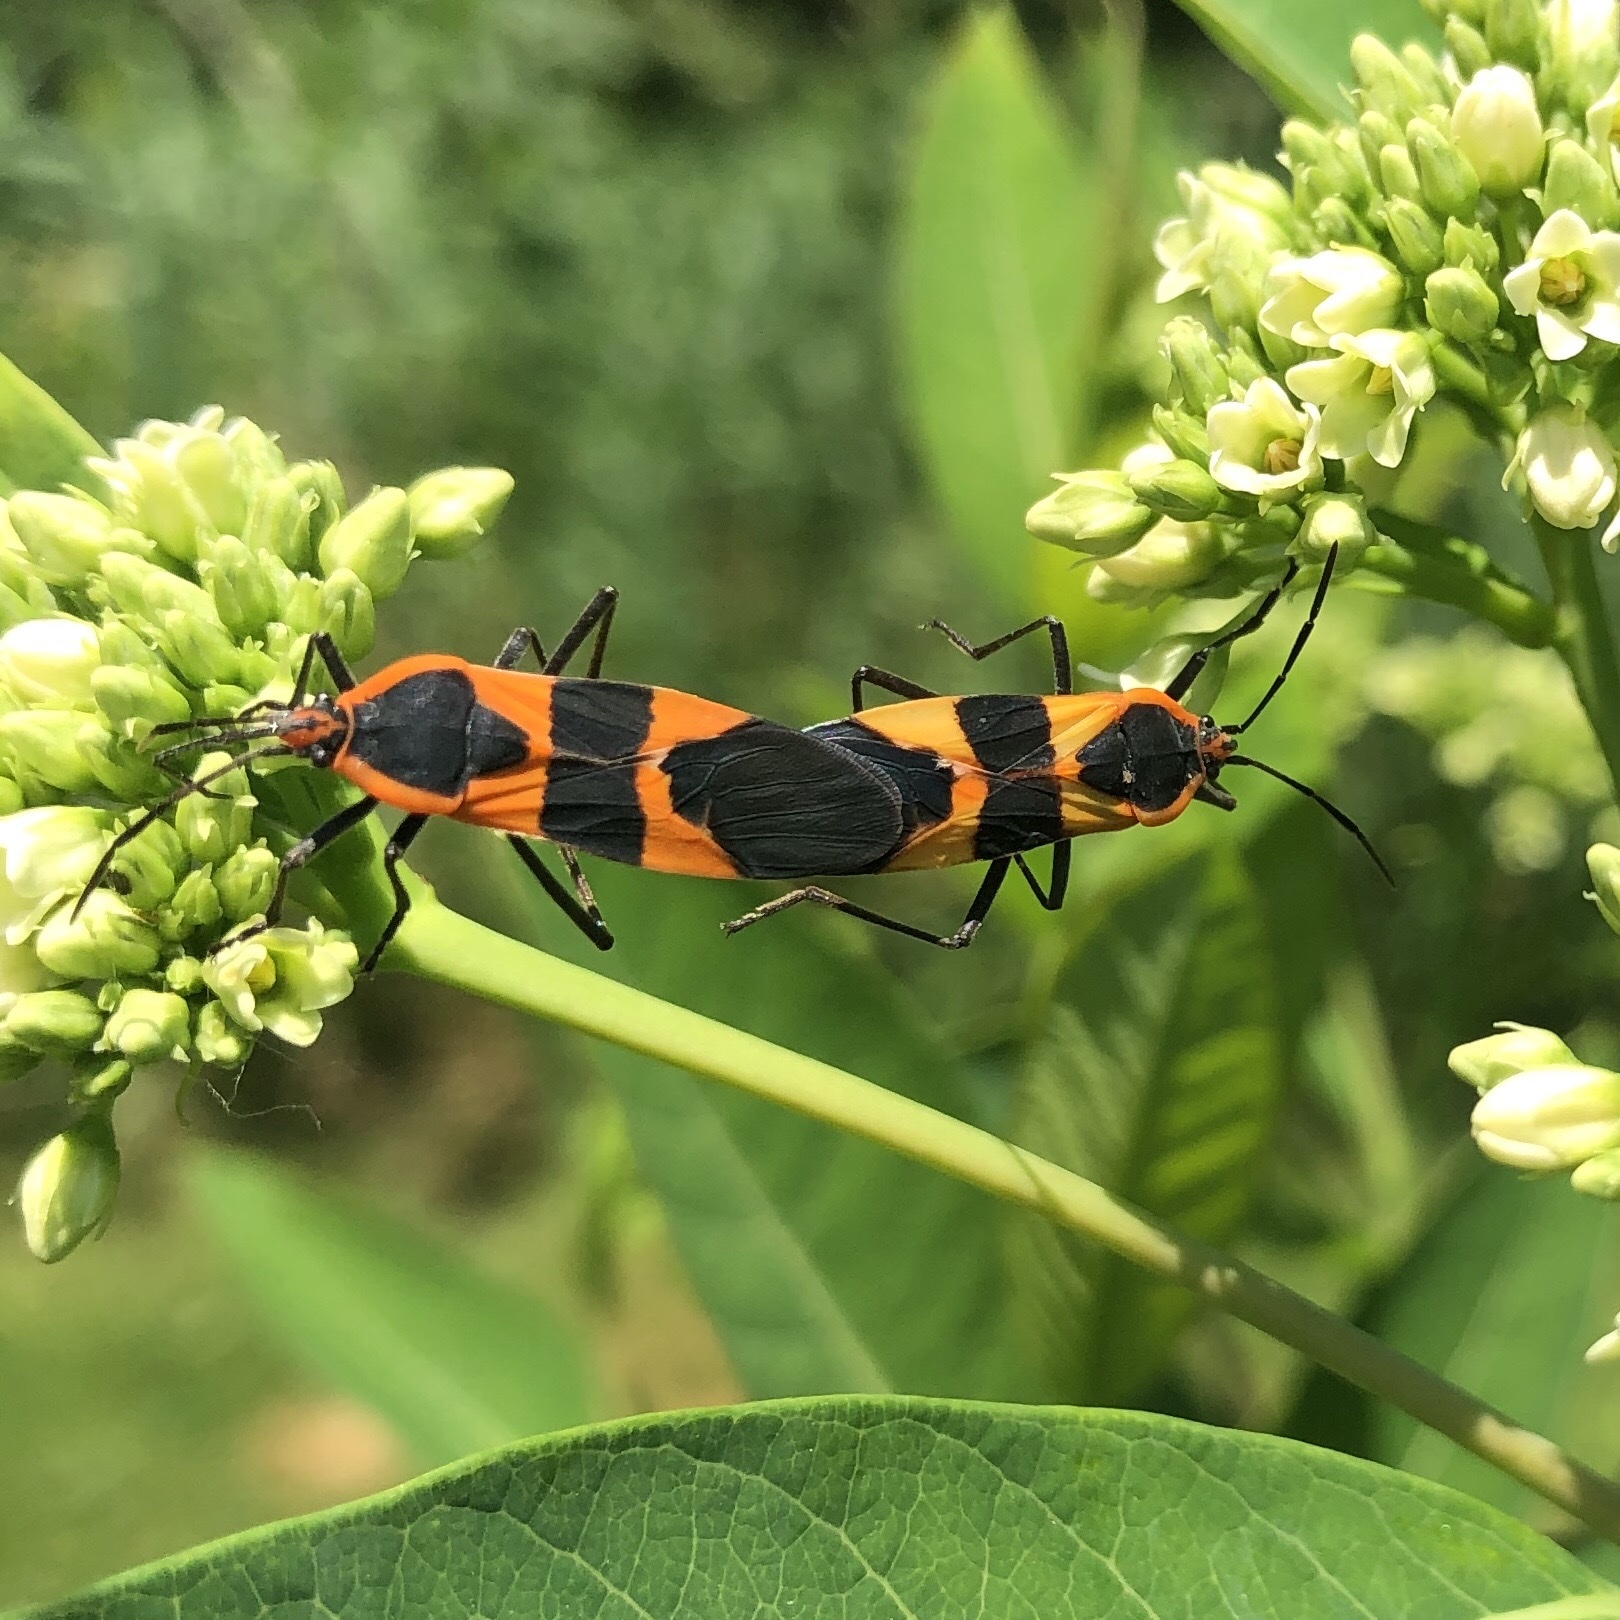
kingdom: Animalia
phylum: Arthropoda
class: Insecta
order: Hemiptera
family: Lygaeidae
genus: Oncopeltus
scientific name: Oncopeltus fasciatus
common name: Large milkweed bug
